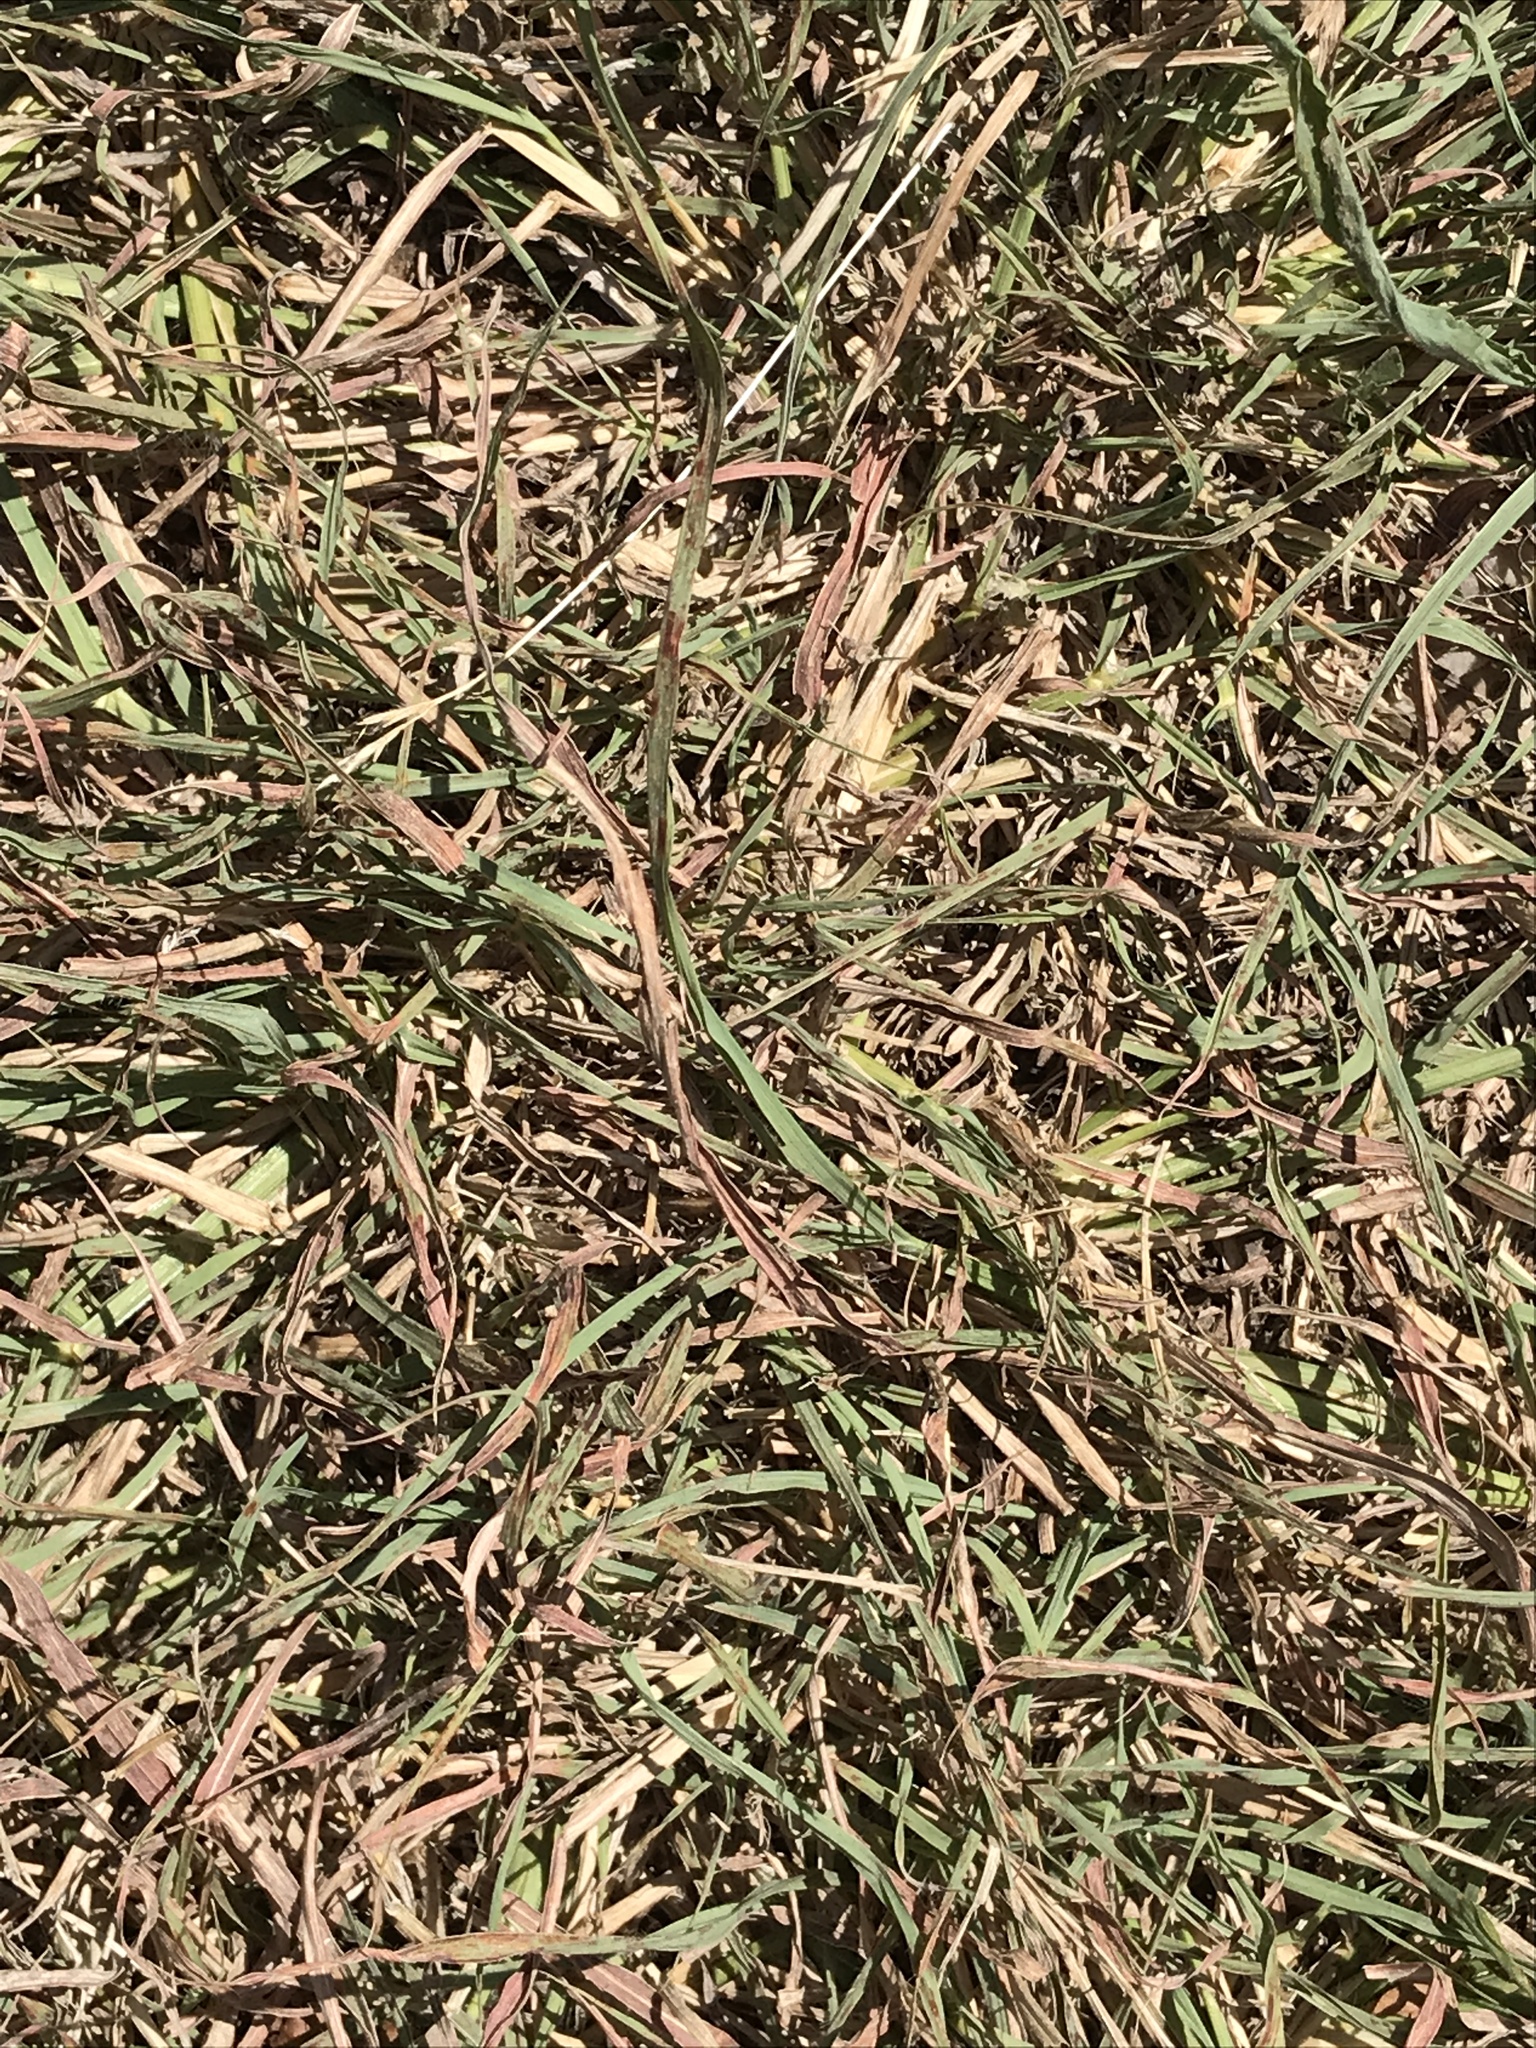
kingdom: Plantae
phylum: Tracheophyta
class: Liliopsida
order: Poales
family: Poaceae
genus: Bothriochloa
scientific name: Bothriochloa ischaemum
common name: Yellow bluestem
